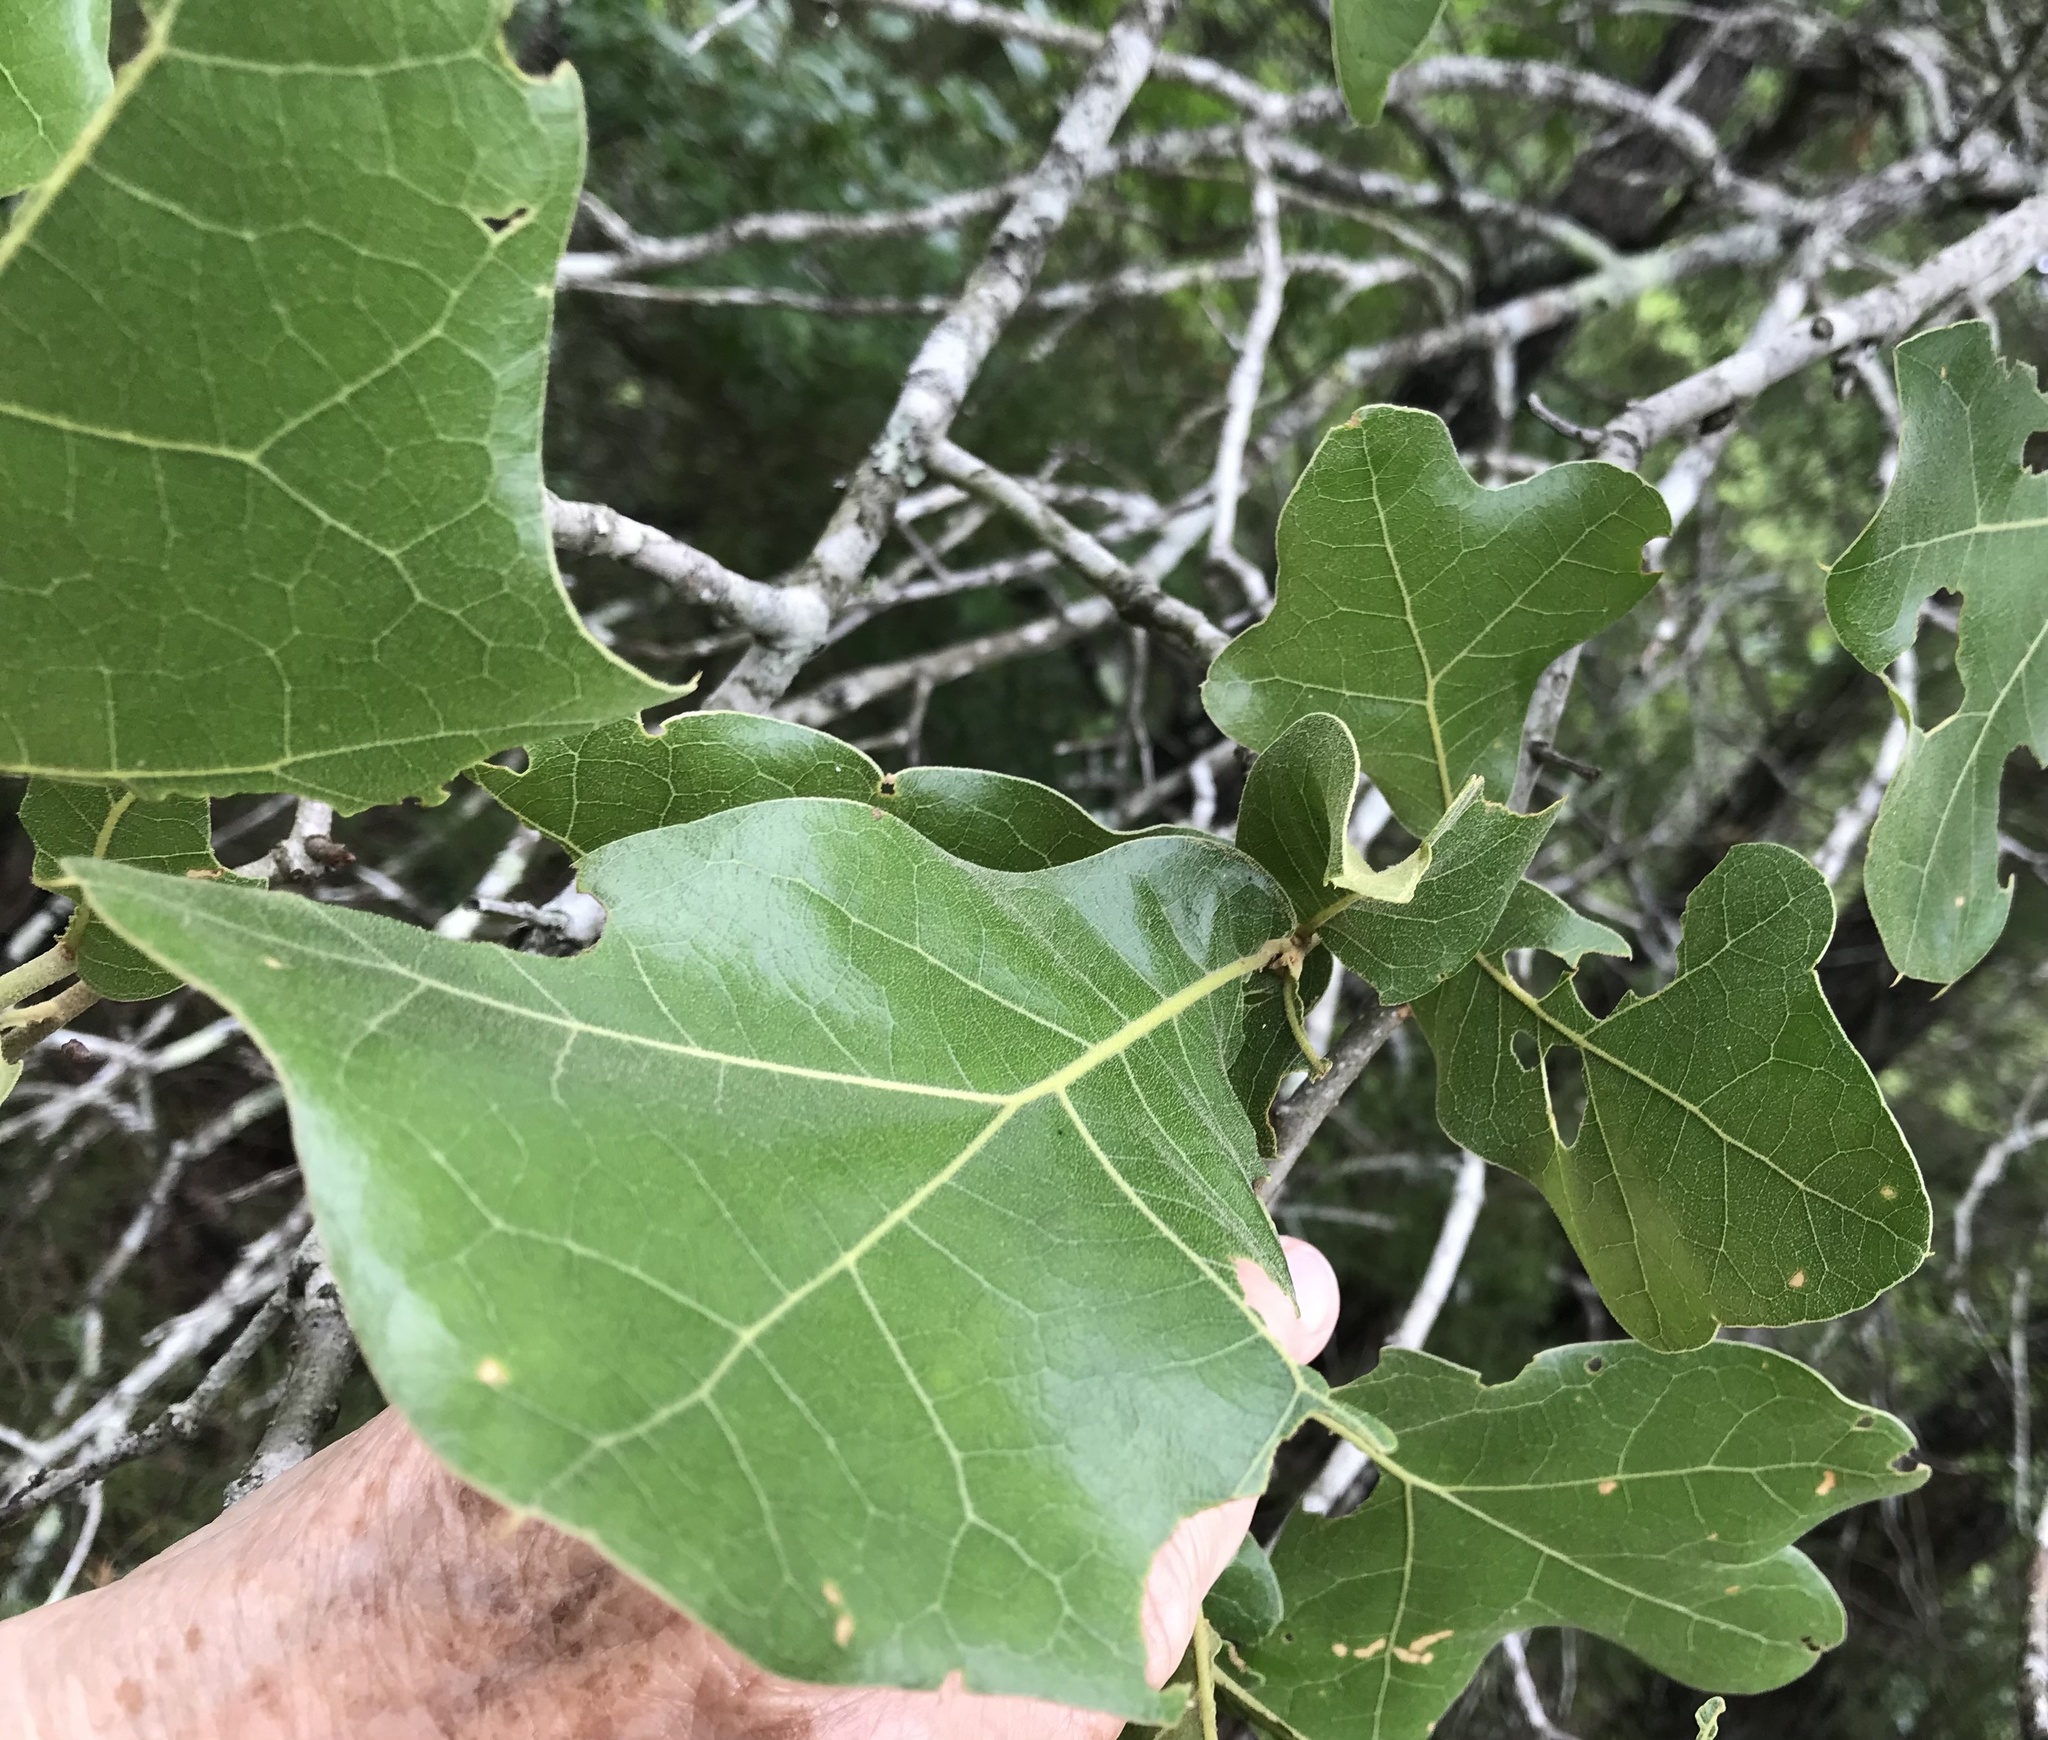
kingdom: Plantae
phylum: Tracheophyta
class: Magnoliopsida
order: Fagales
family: Fagaceae
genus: Quercus
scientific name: Quercus marilandica
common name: Blackjack oak
